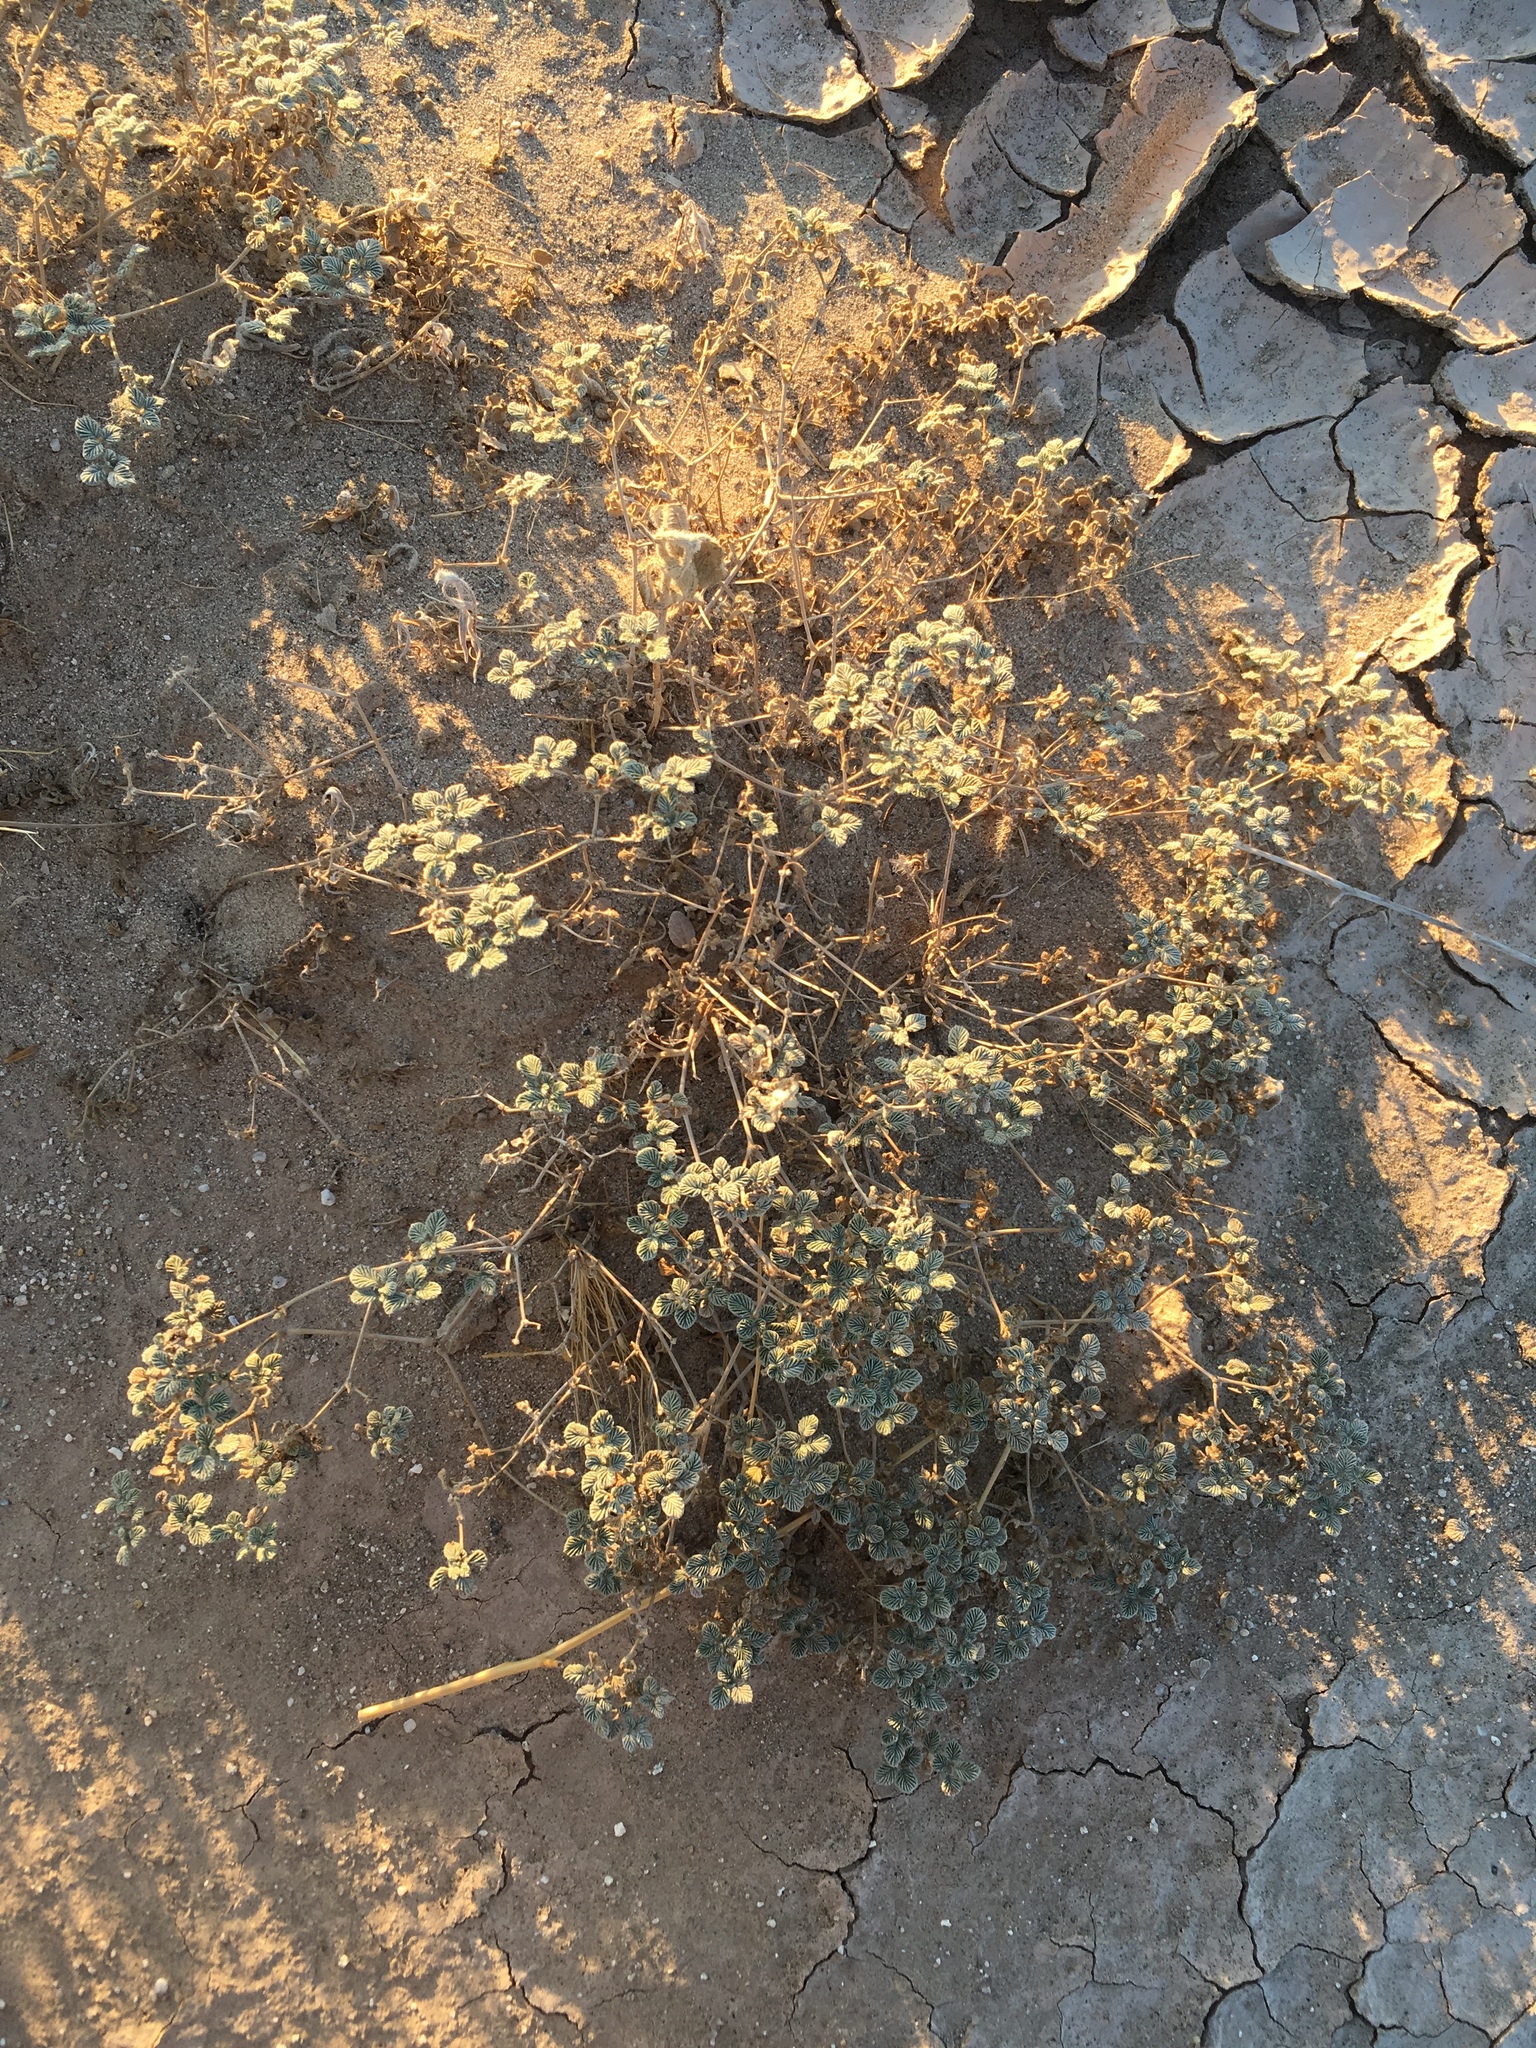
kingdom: Plantae
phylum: Tracheophyta
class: Magnoliopsida
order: Boraginales
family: Ehretiaceae
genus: Tiquilia
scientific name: Tiquilia plicata
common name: Fan-leaf tiquilia
